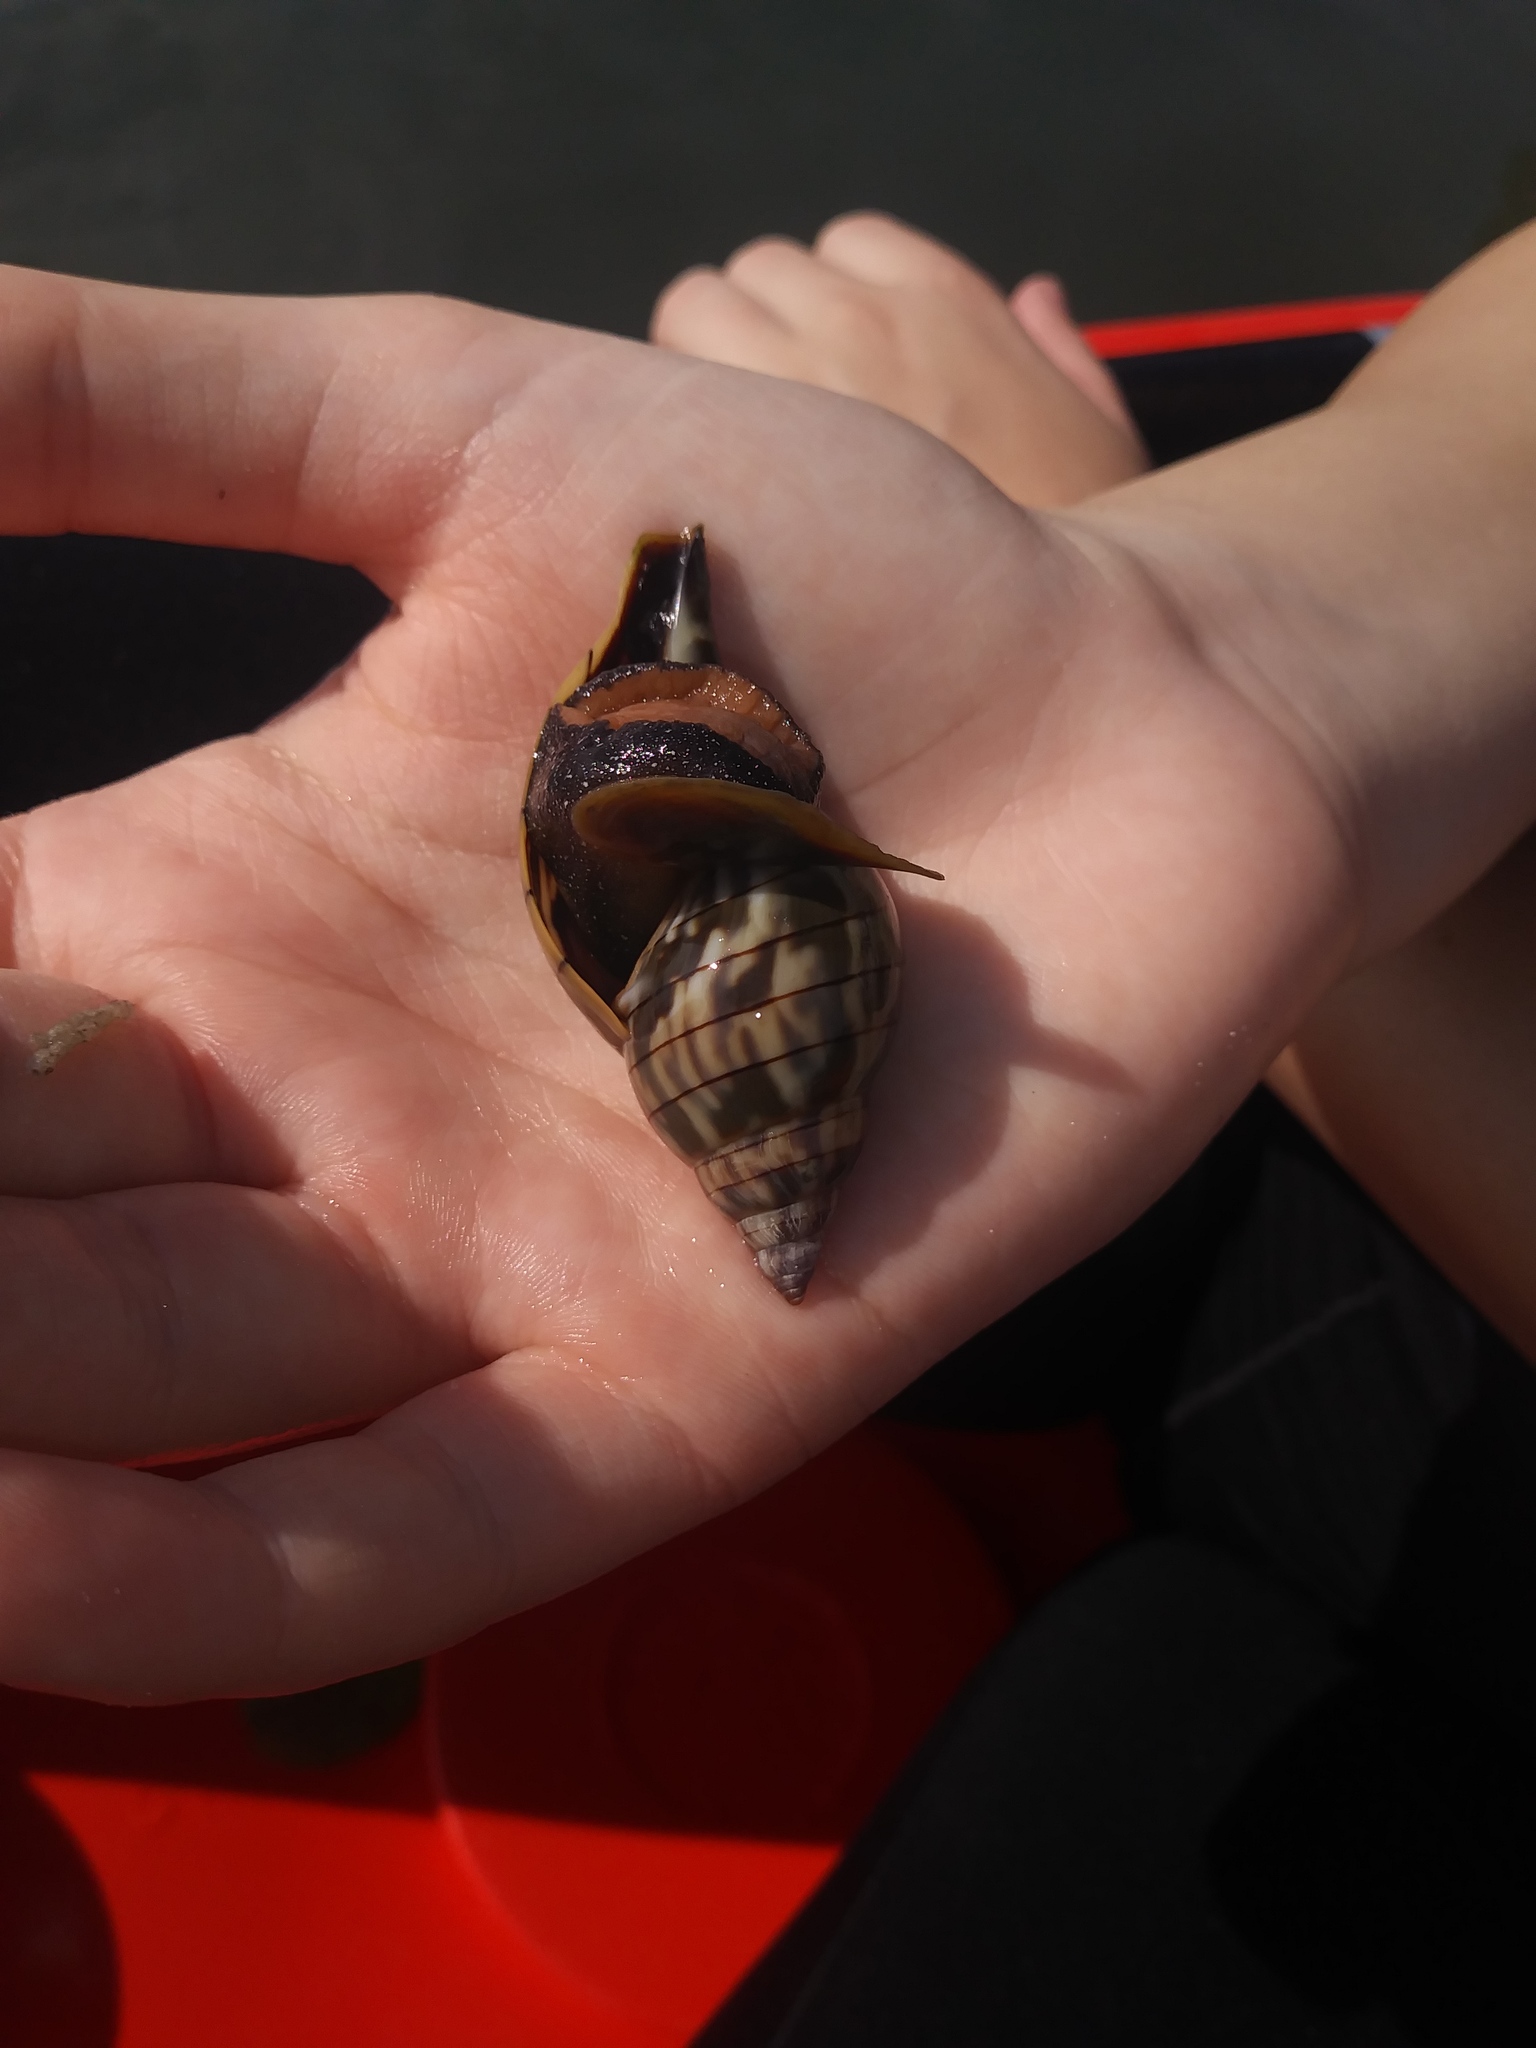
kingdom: Animalia
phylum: Mollusca
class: Gastropoda
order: Neogastropoda
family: Fasciolariidae
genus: Cinctura
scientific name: Cinctura hunteria
